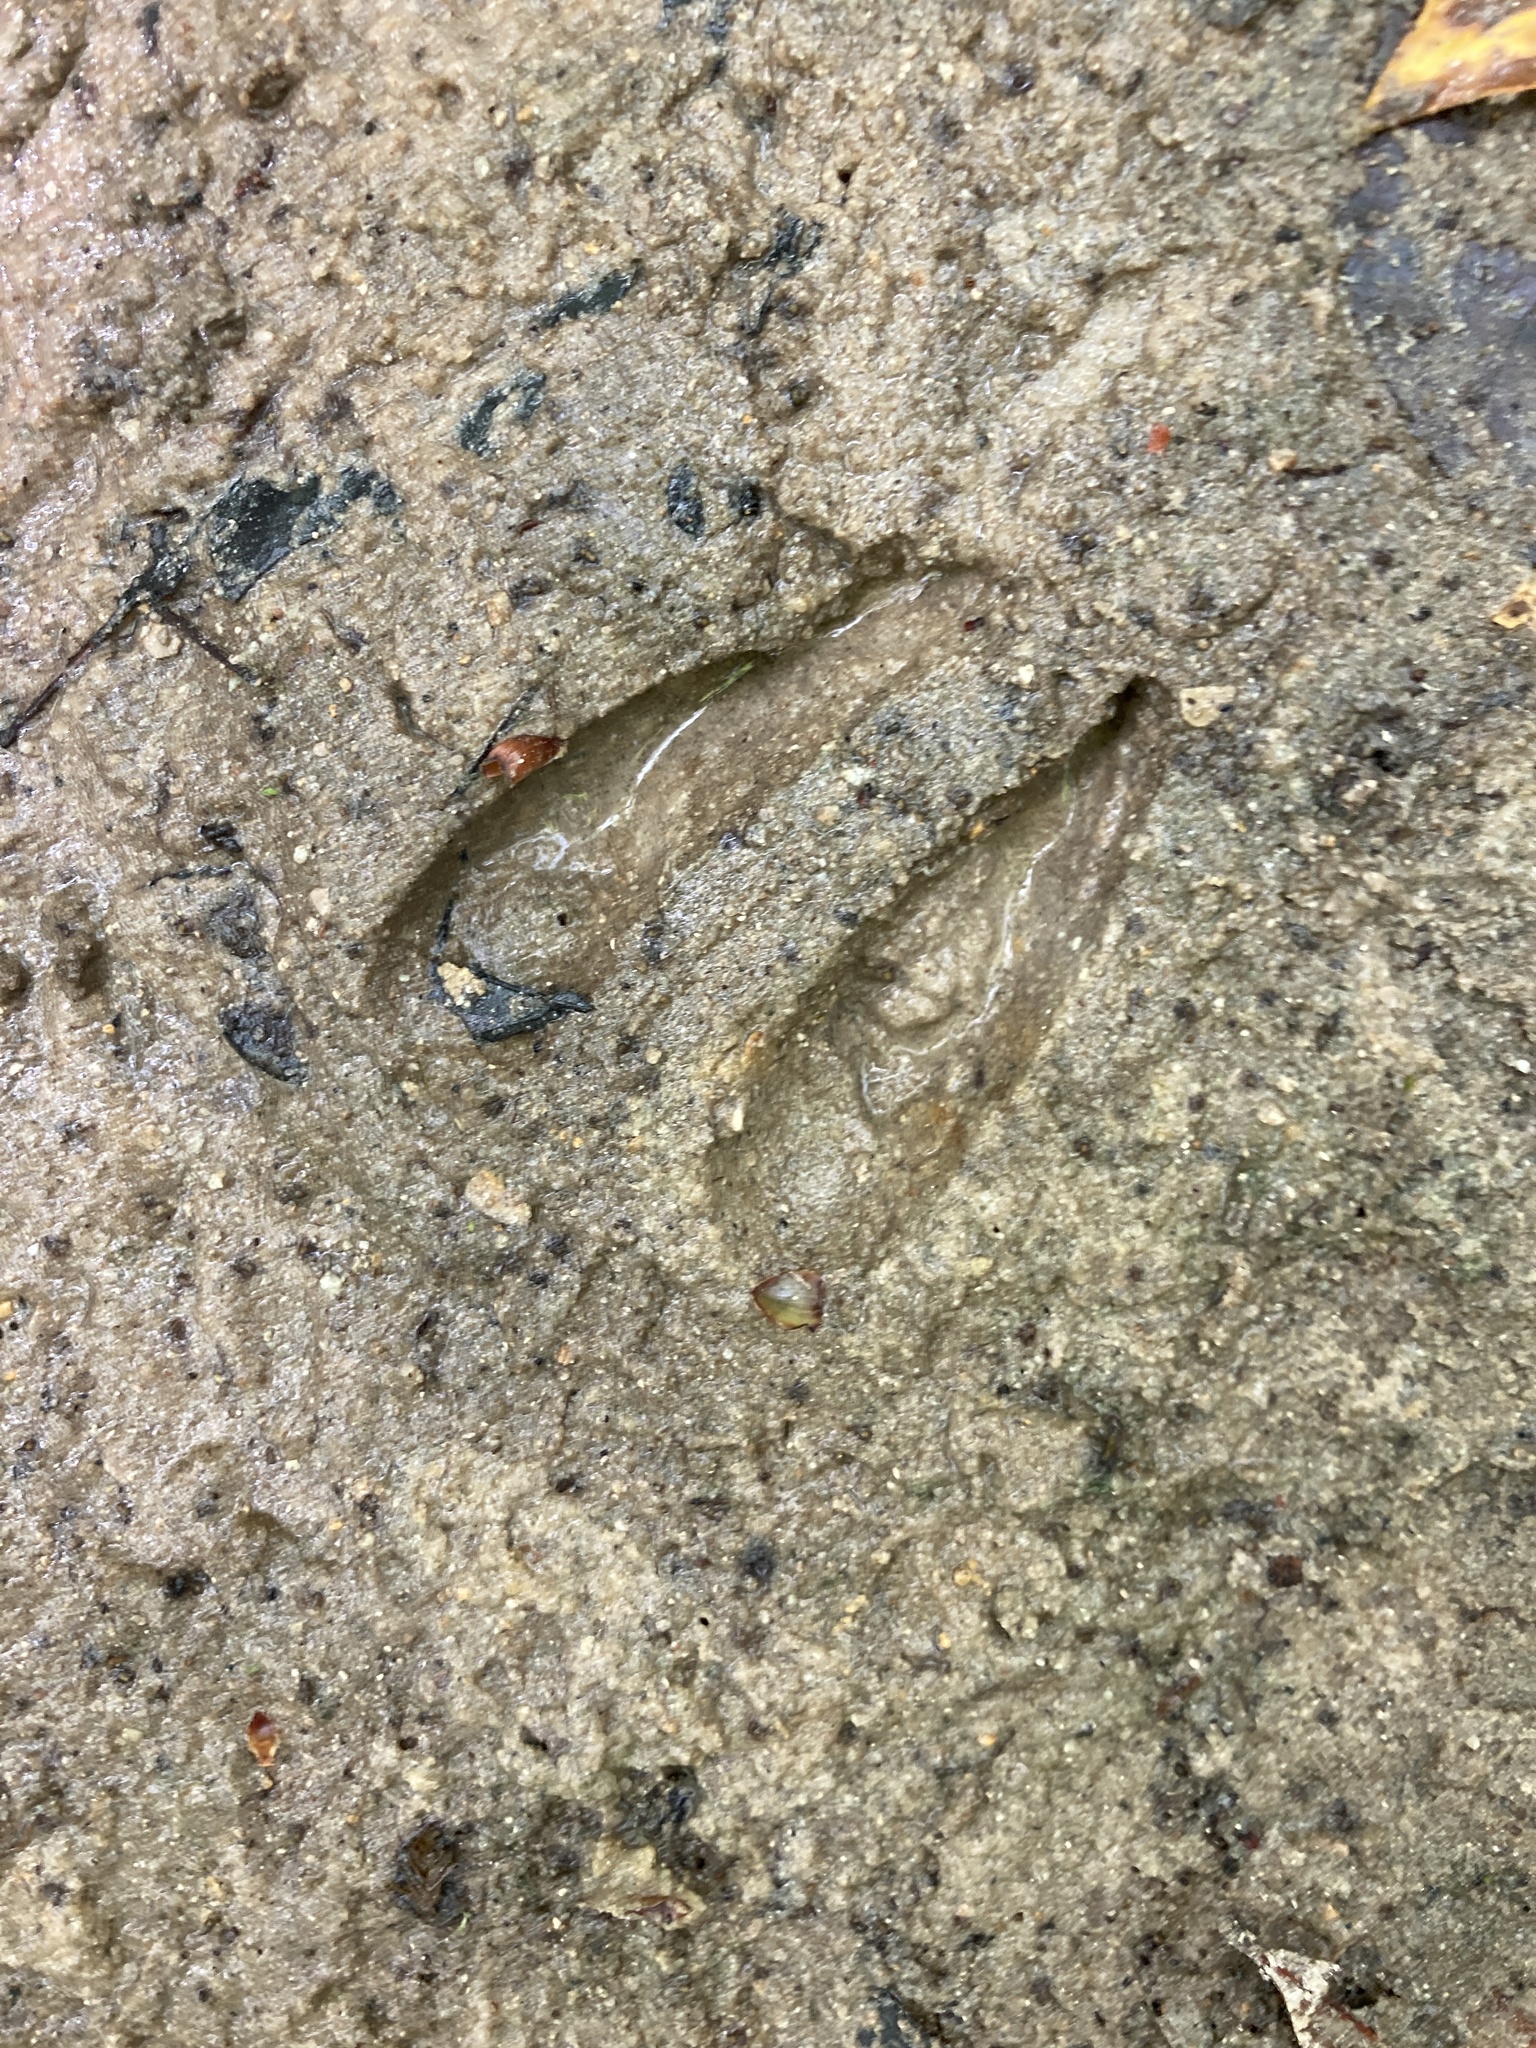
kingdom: Animalia
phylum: Chordata
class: Mammalia
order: Artiodactyla
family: Cervidae
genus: Odocoileus
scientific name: Odocoileus virginianus
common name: White-tailed deer
